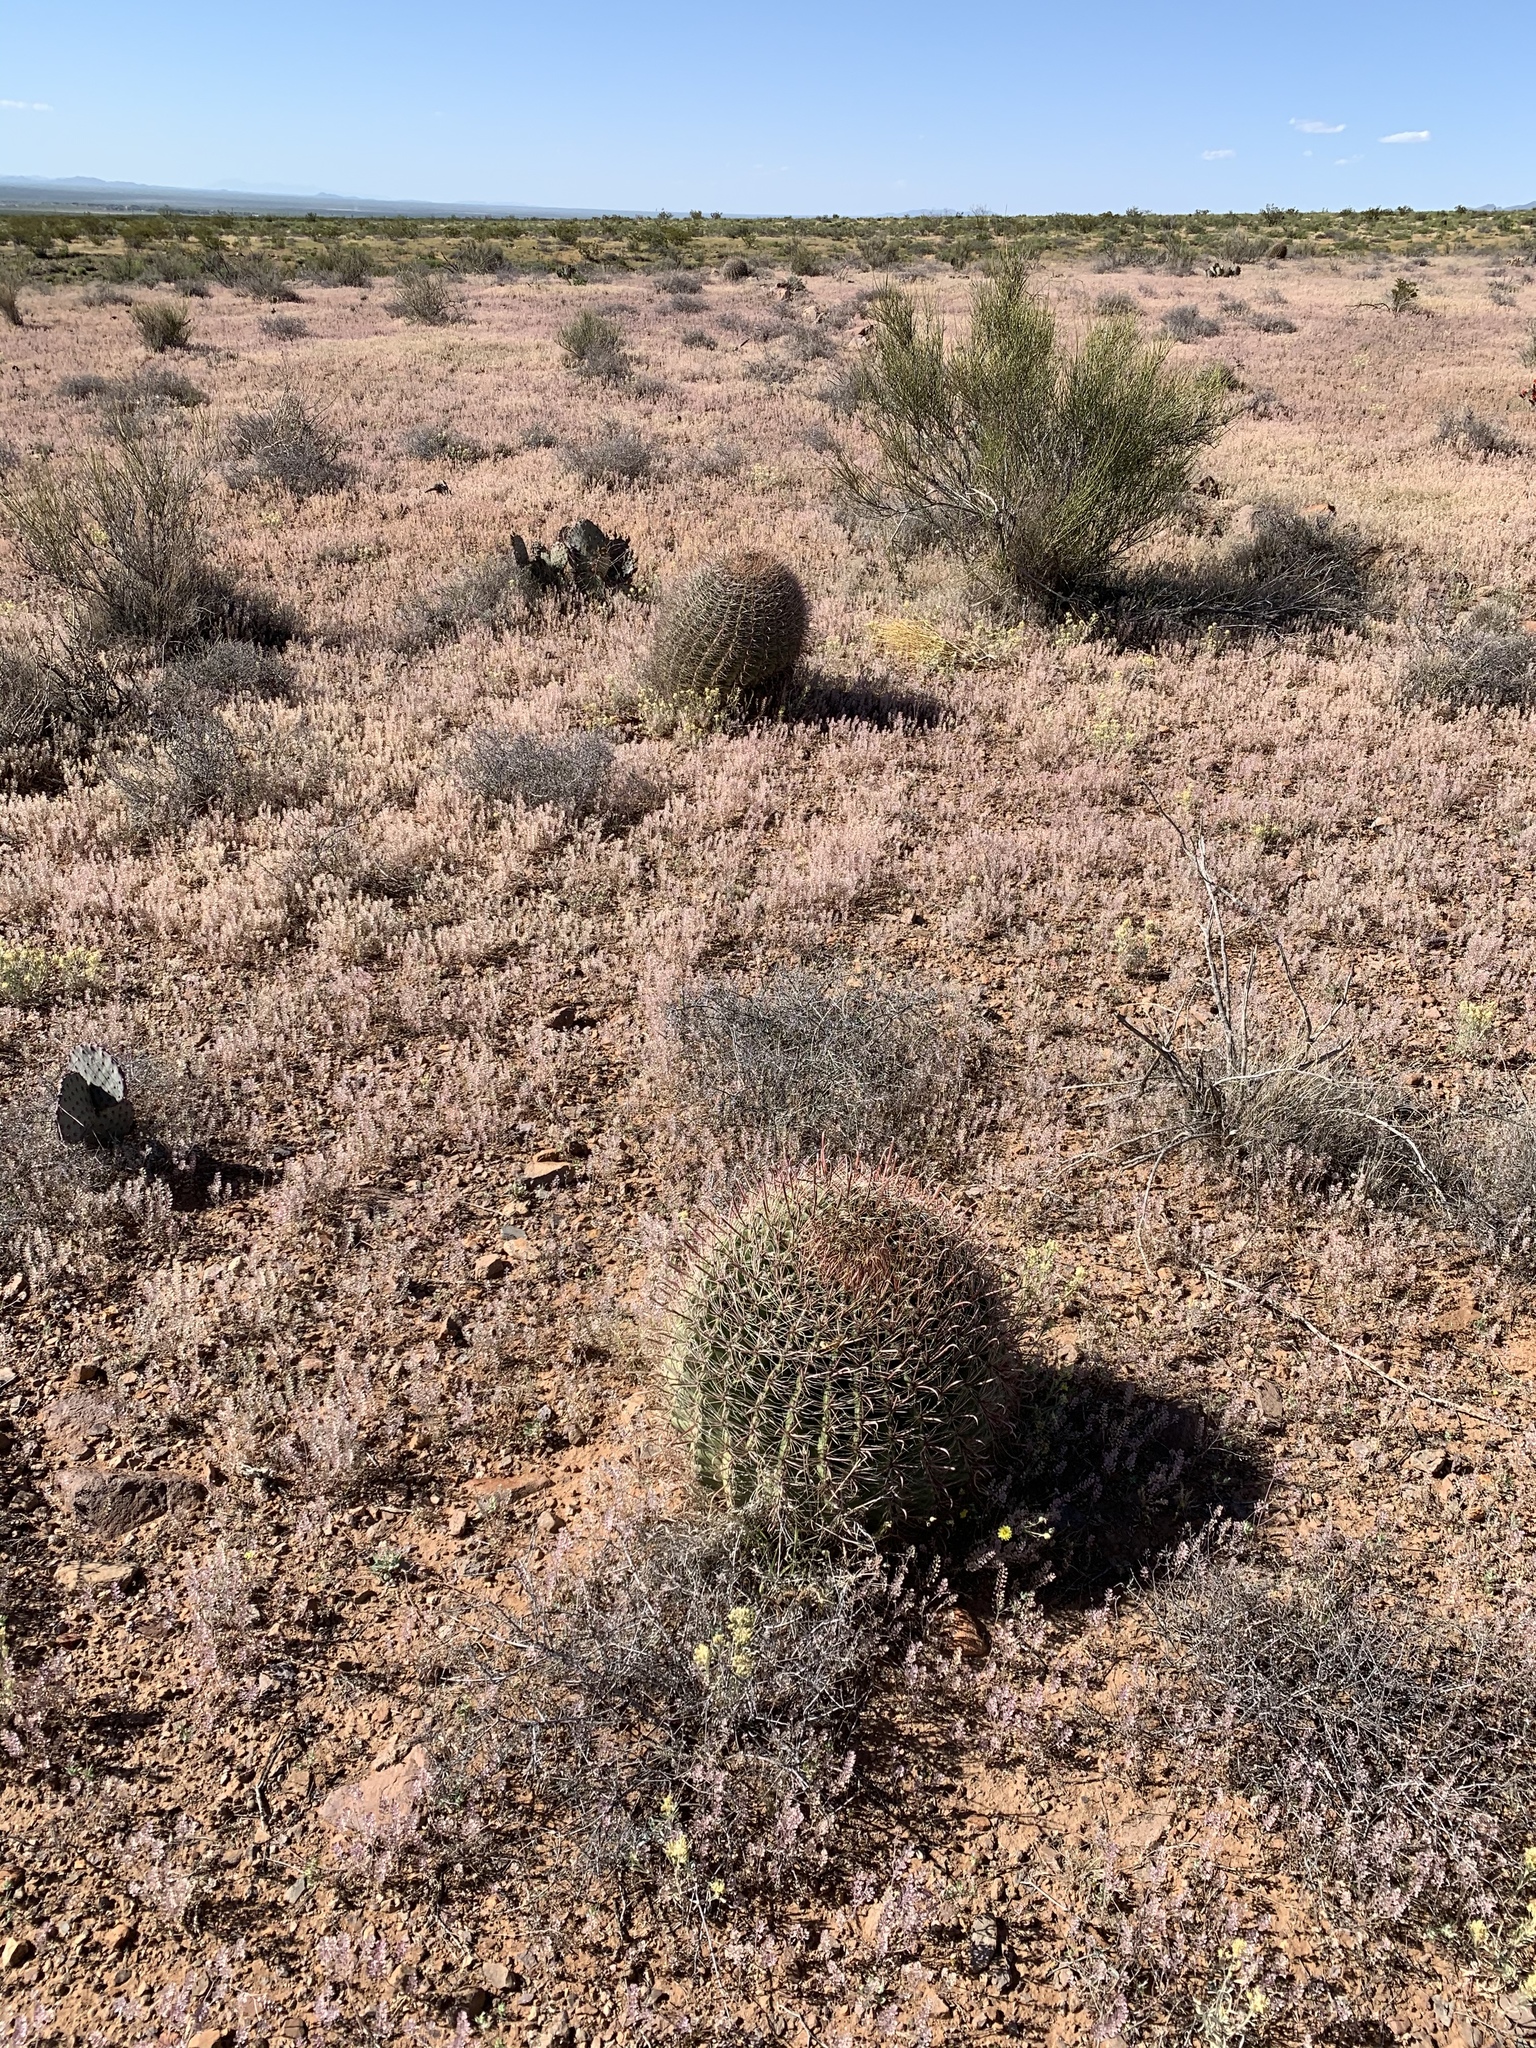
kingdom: Plantae
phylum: Tracheophyta
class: Magnoliopsida
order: Caryophyllales
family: Cactaceae
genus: Ferocactus
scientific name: Ferocactus wislizeni
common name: Candy barrel cactus
